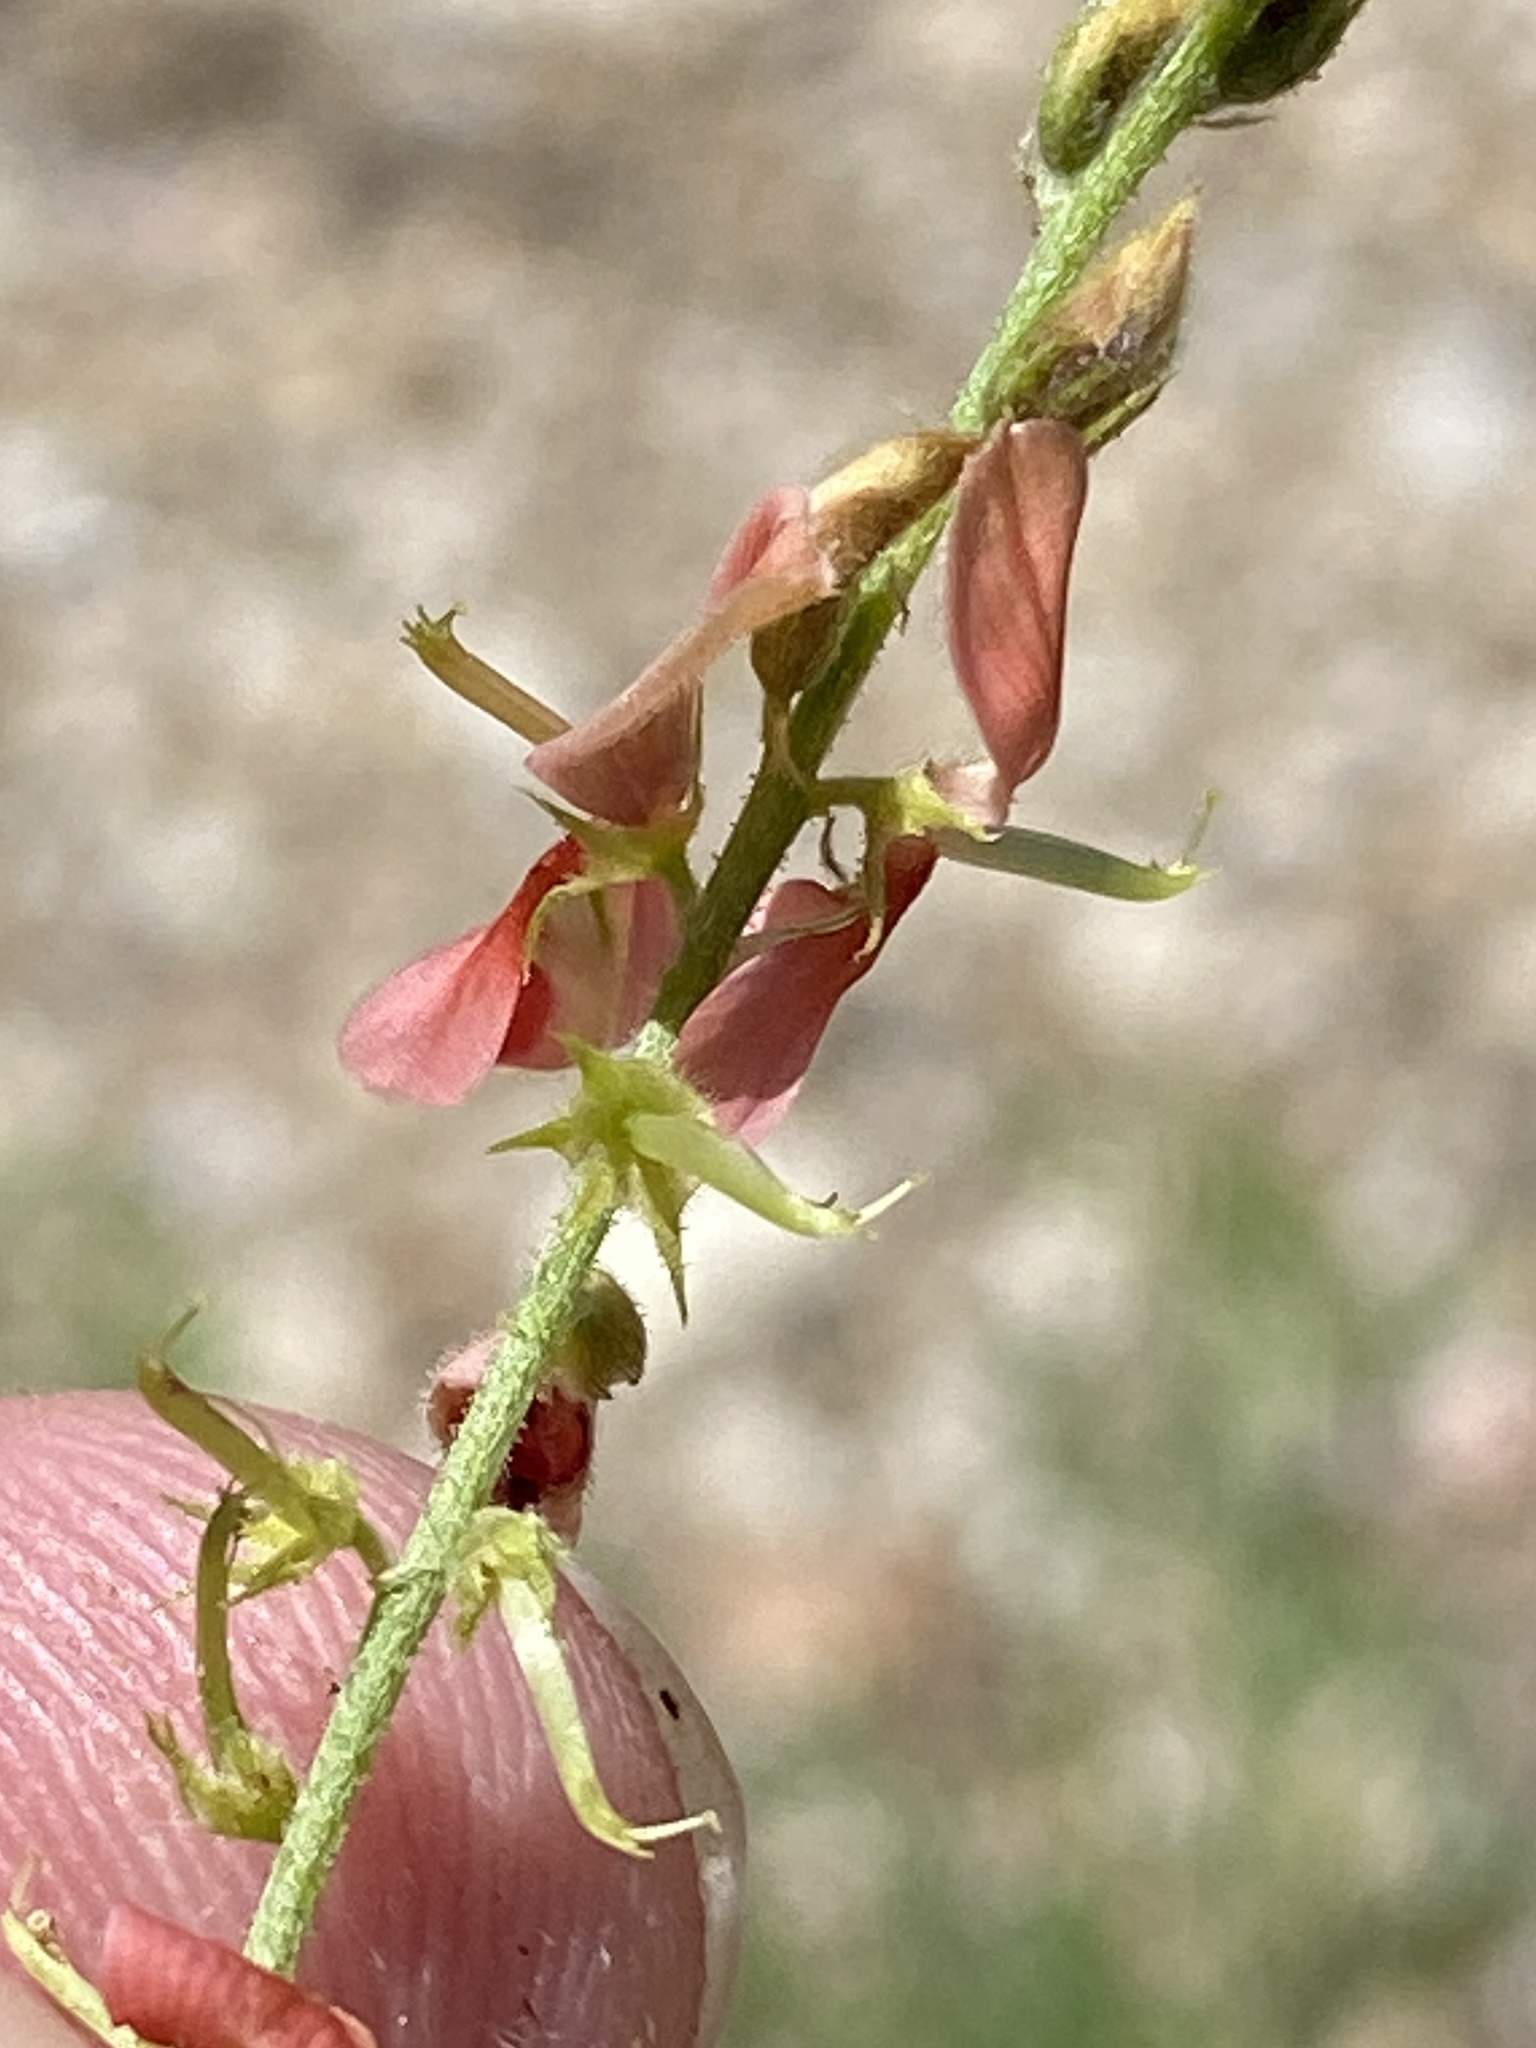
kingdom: Plantae
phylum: Tracheophyta
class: Magnoliopsida
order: Fabales
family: Fabaceae
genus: Indigofera
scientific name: Indigofera heterotricha
